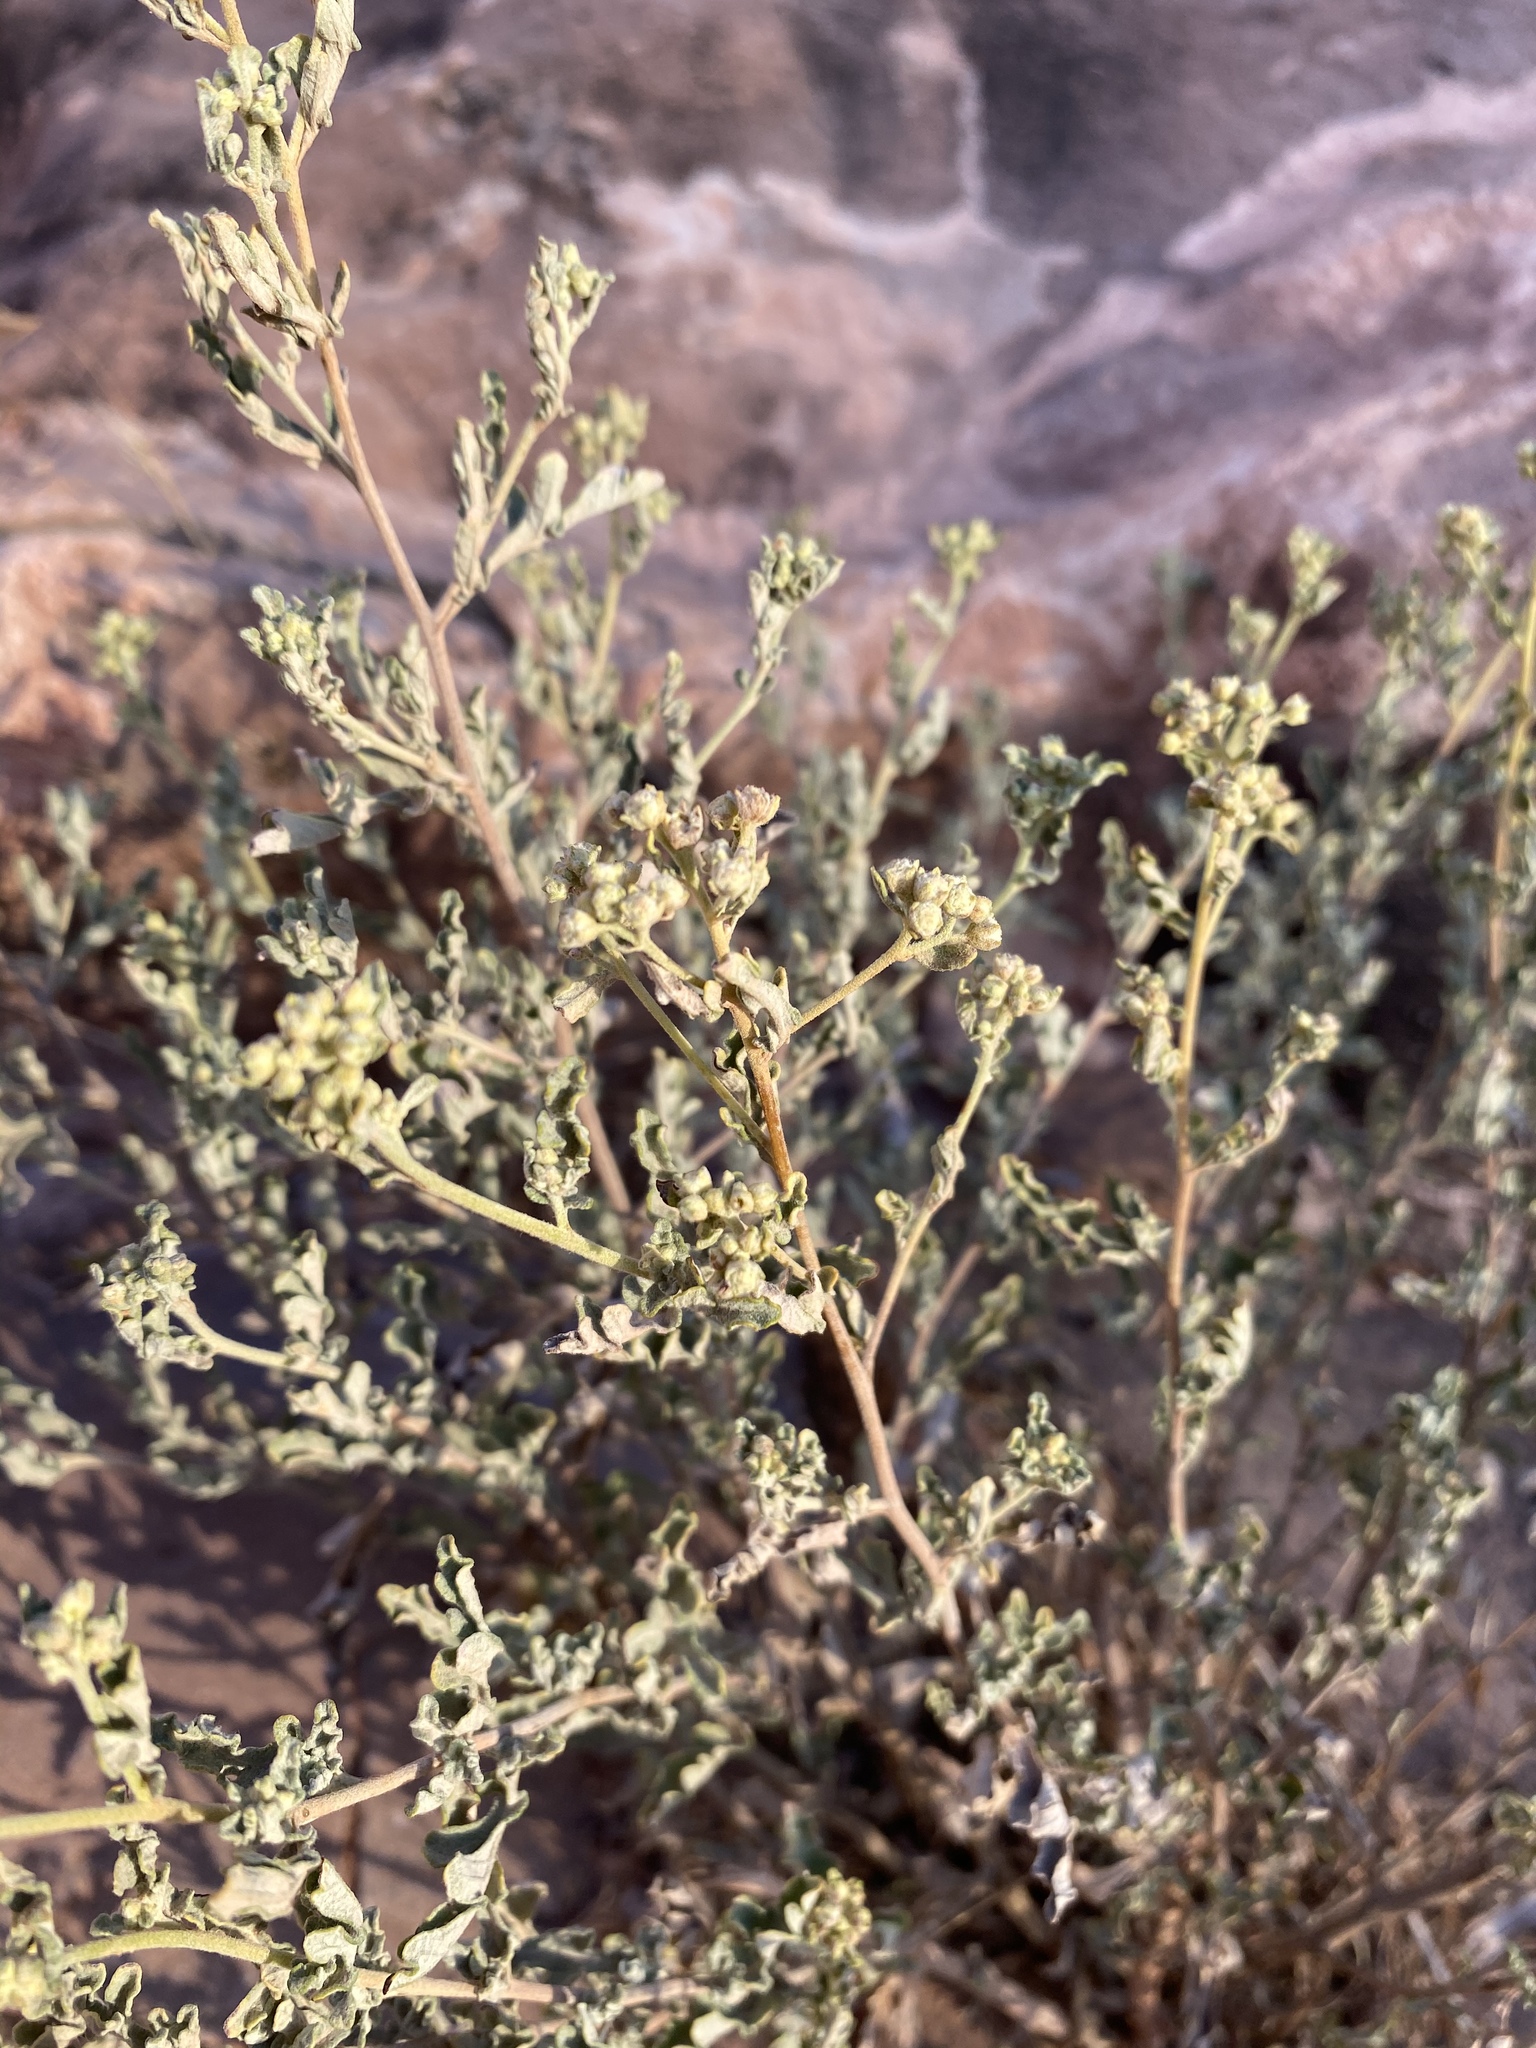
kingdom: Plantae
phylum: Tracheophyta
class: Magnoliopsida
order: Asterales
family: Asteraceae
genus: Parthenium
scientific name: Parthenium incanum
